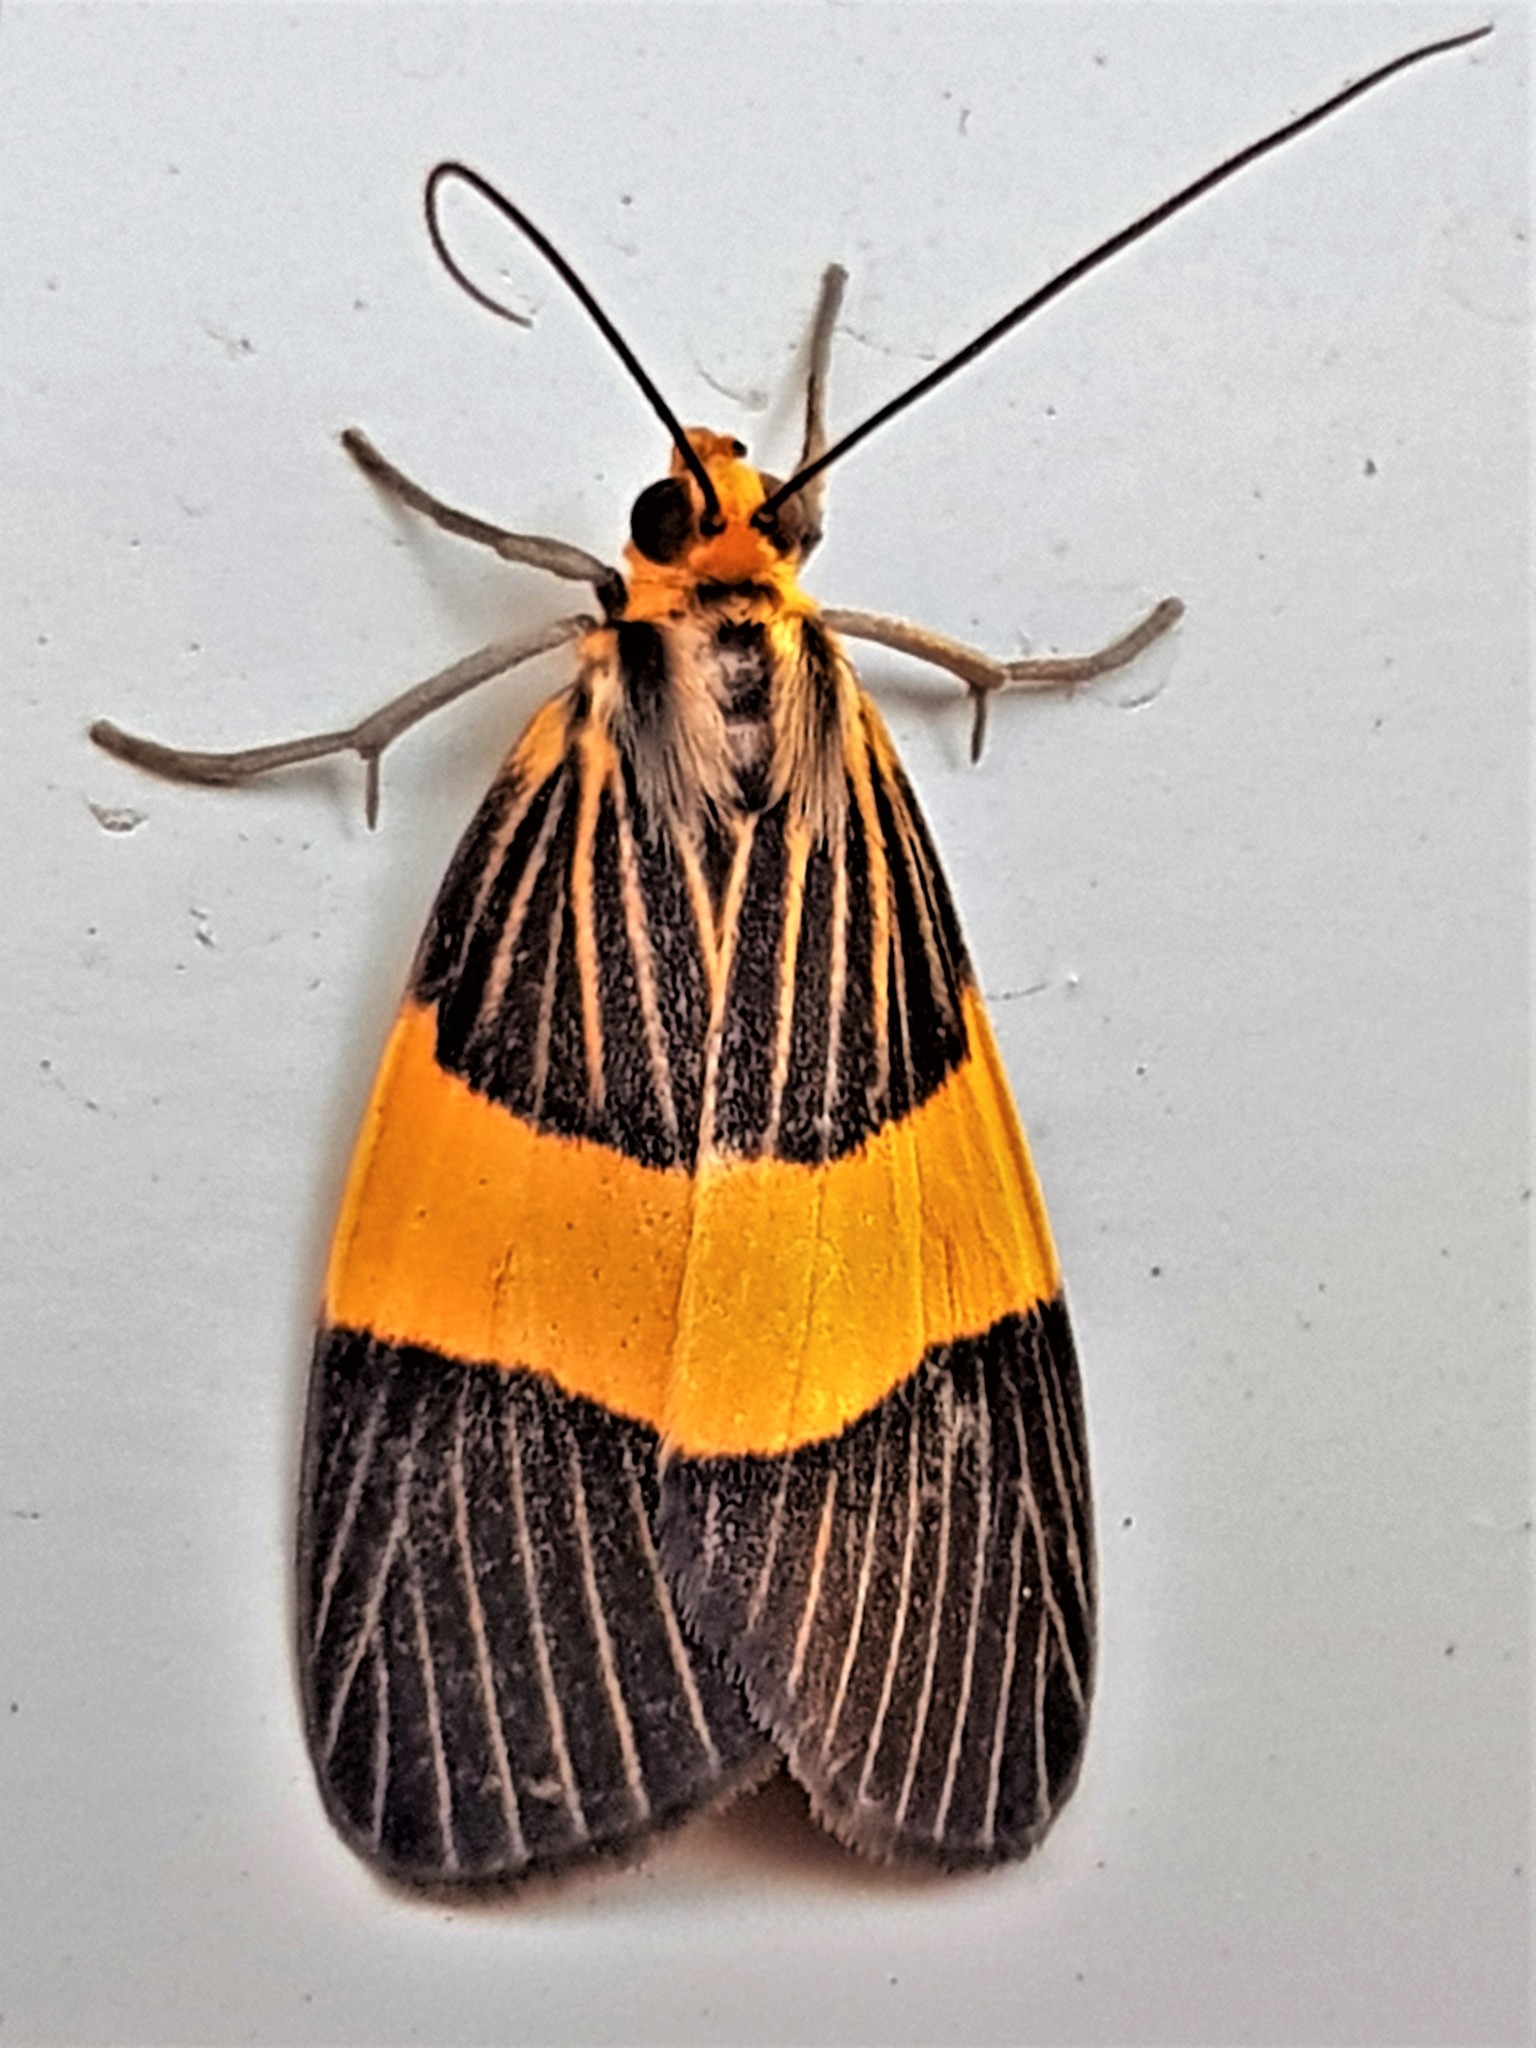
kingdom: Animalia
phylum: Arthropoda
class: Insecta
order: Lepidoptera
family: Notodontidae
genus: Scotura
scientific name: Scotura transversa
